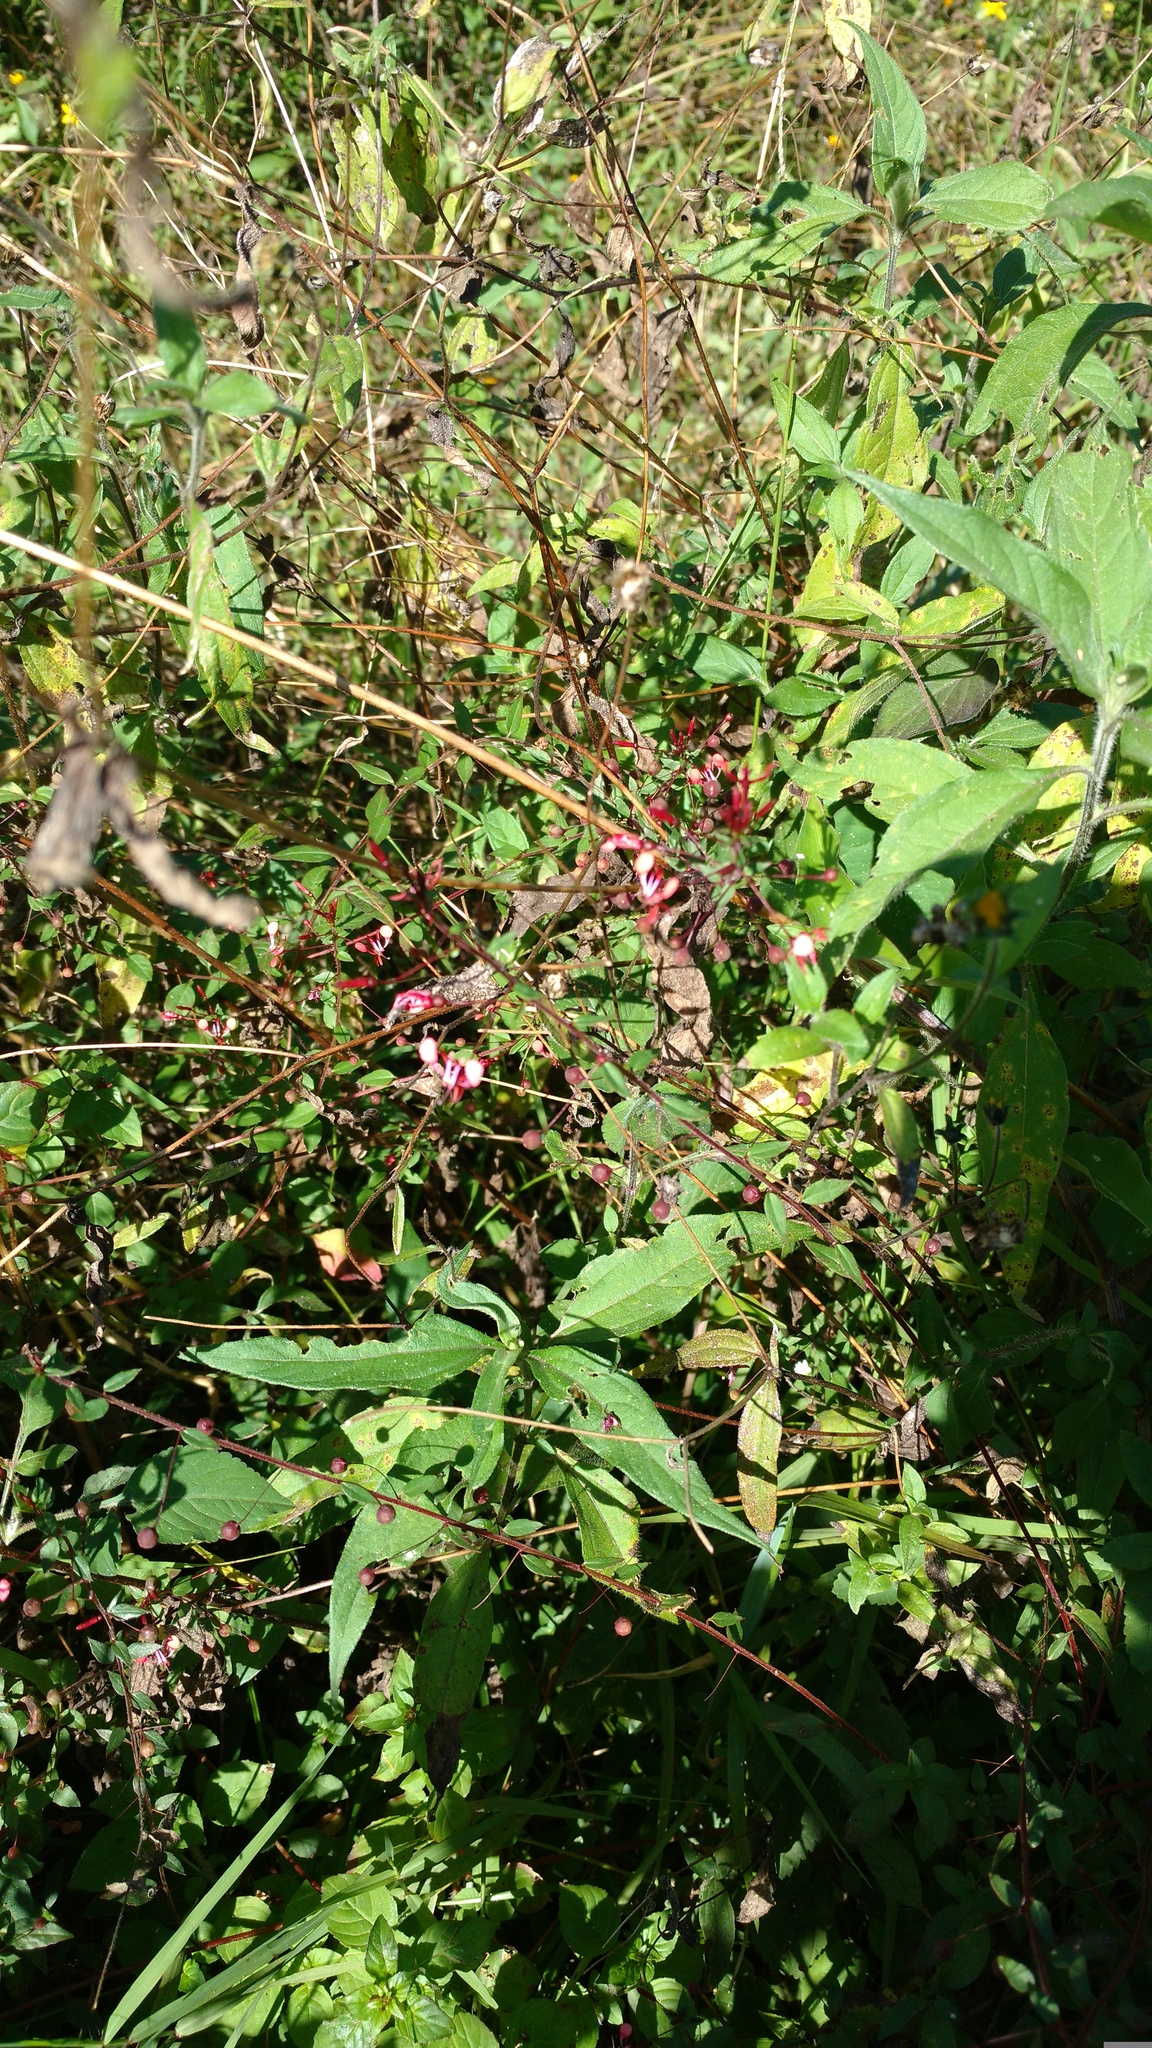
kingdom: Plantae
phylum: Tracheophyta
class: Magnoliopsida
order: Myrtales
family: Onagraceae
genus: Lopezia
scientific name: Lopezia racemosa
